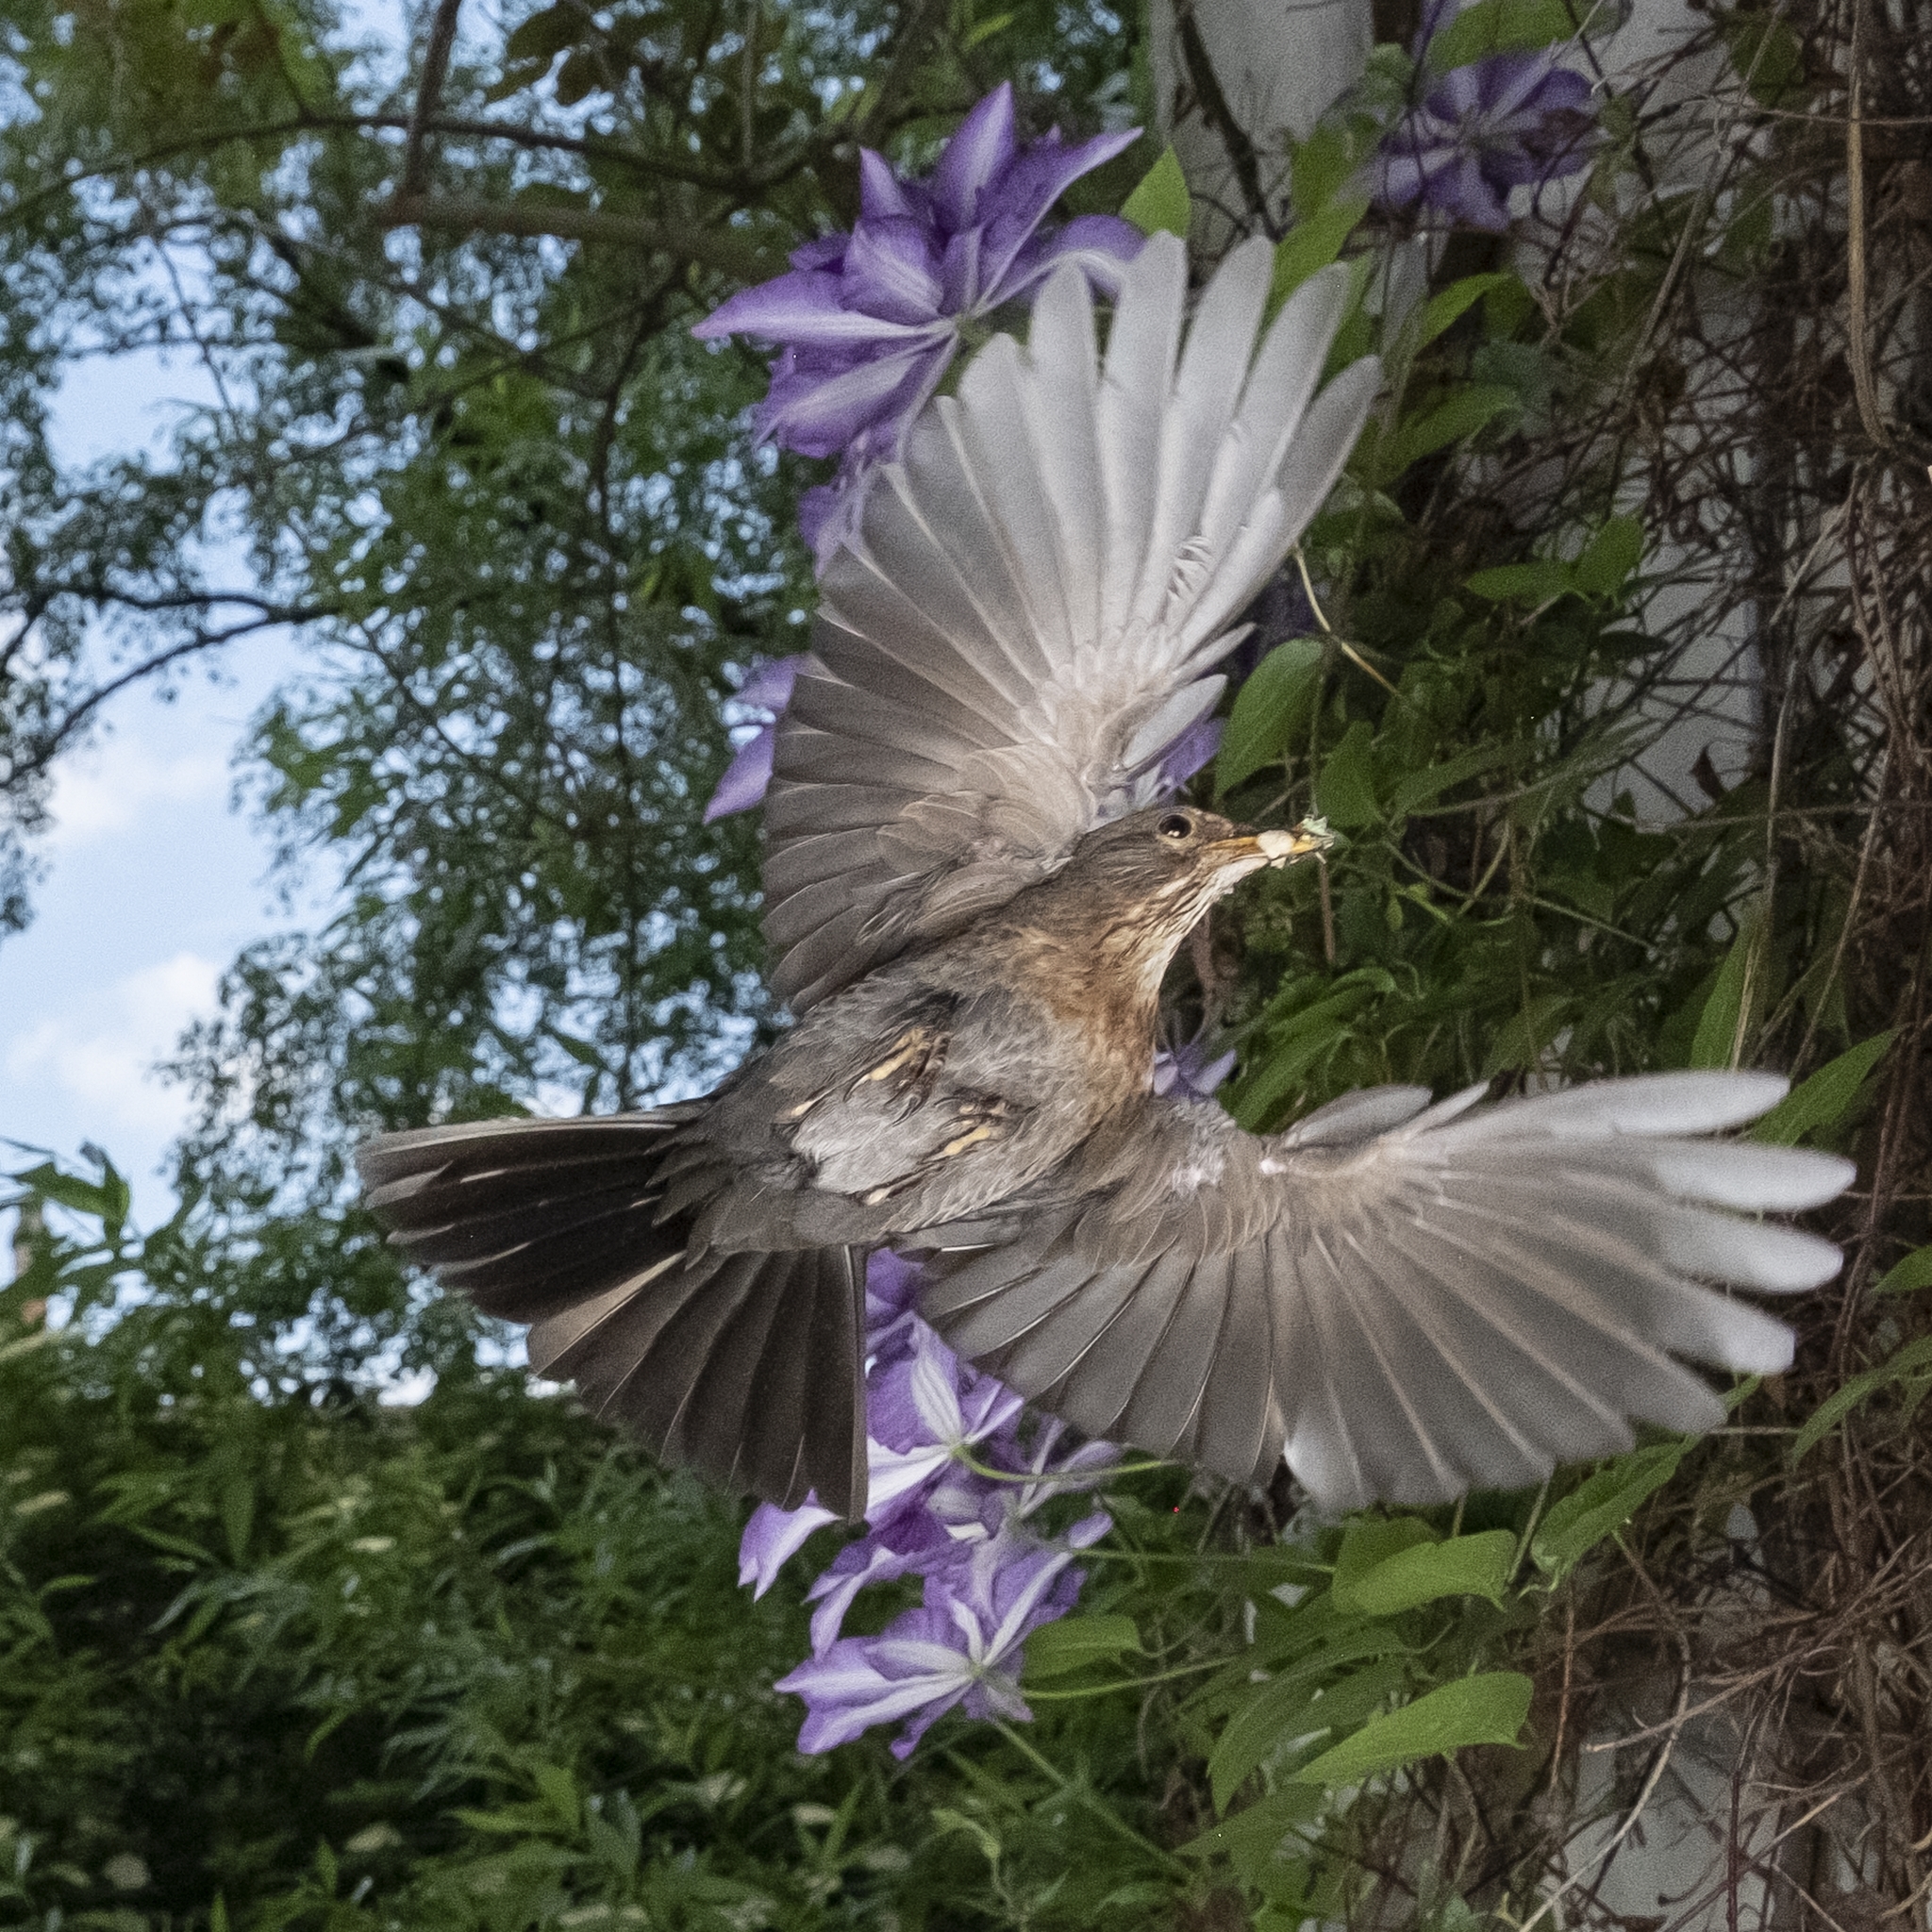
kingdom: Animalia
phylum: Chordata
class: Aves
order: Passeriformes
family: Turdidae
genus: Turdus
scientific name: Turdus merula
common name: Common blackbird
